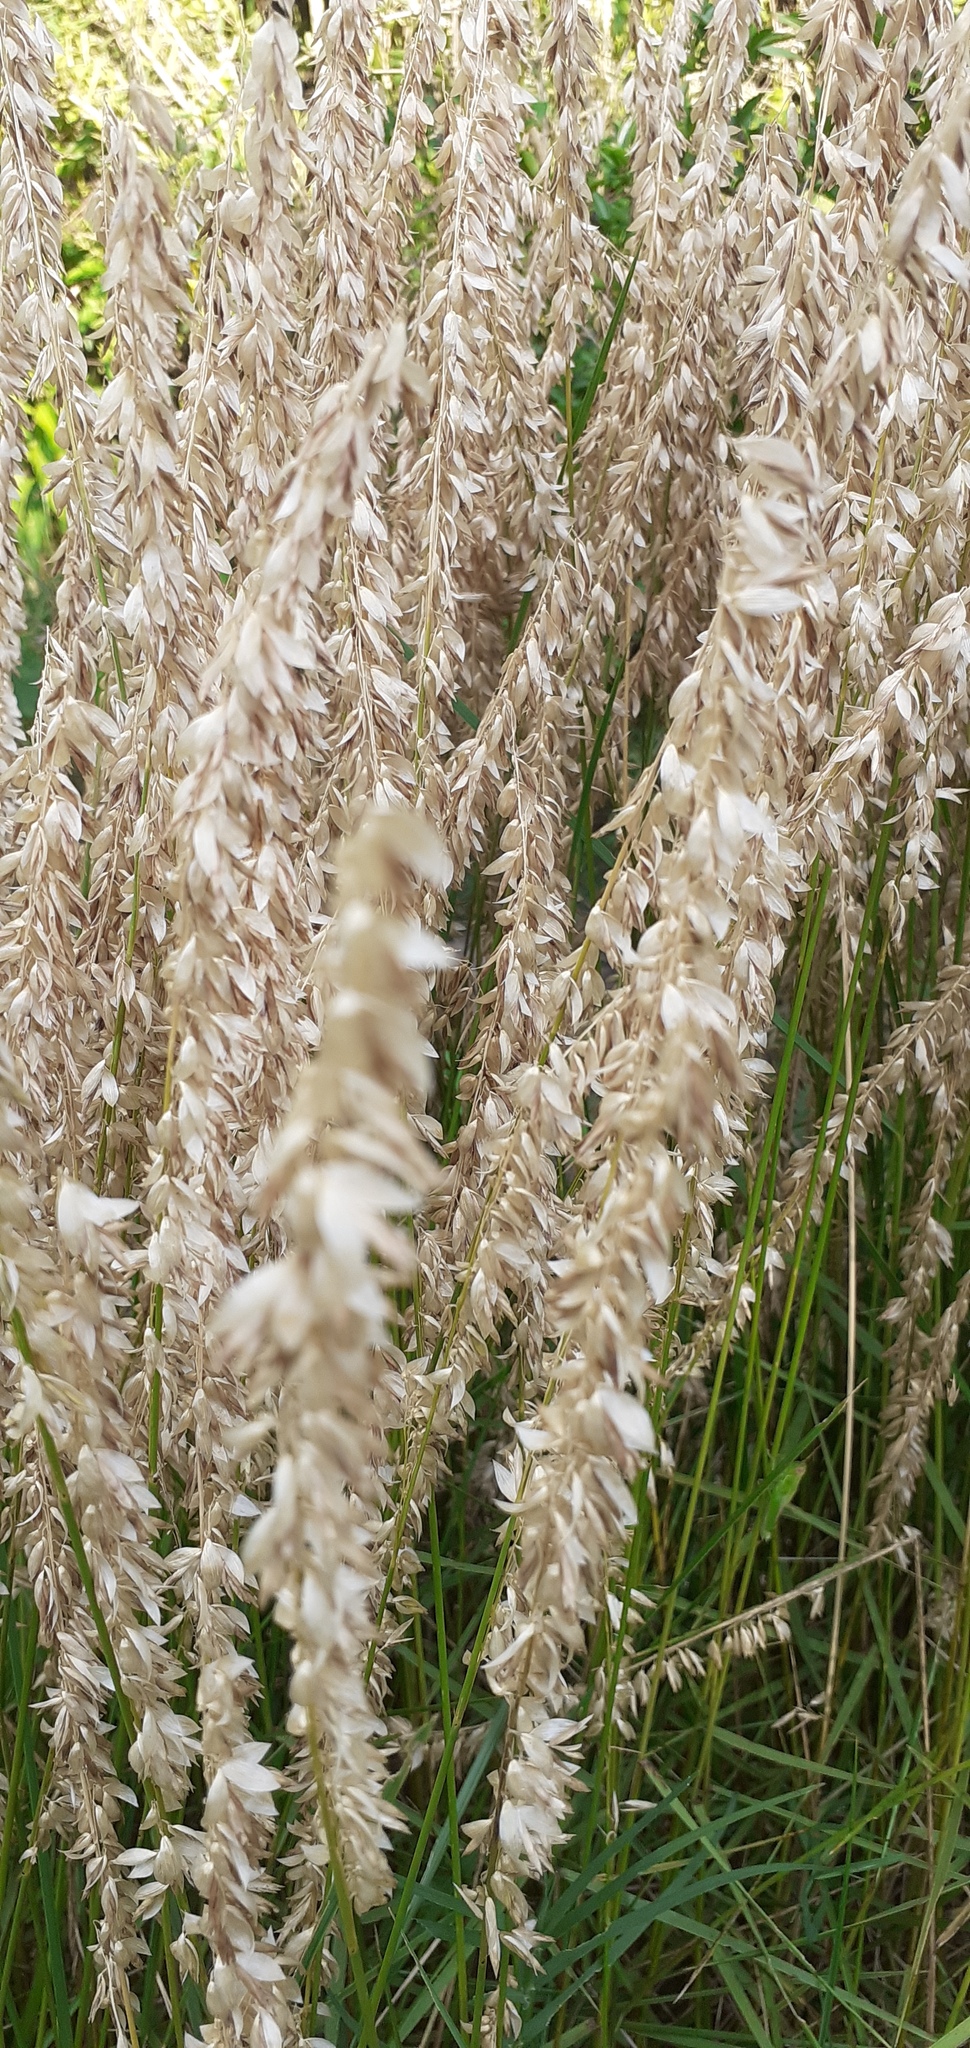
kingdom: Plantae
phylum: Tracheophyta
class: Liliopsida
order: Poales
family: Poaceae
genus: Melica
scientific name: Melica macra
